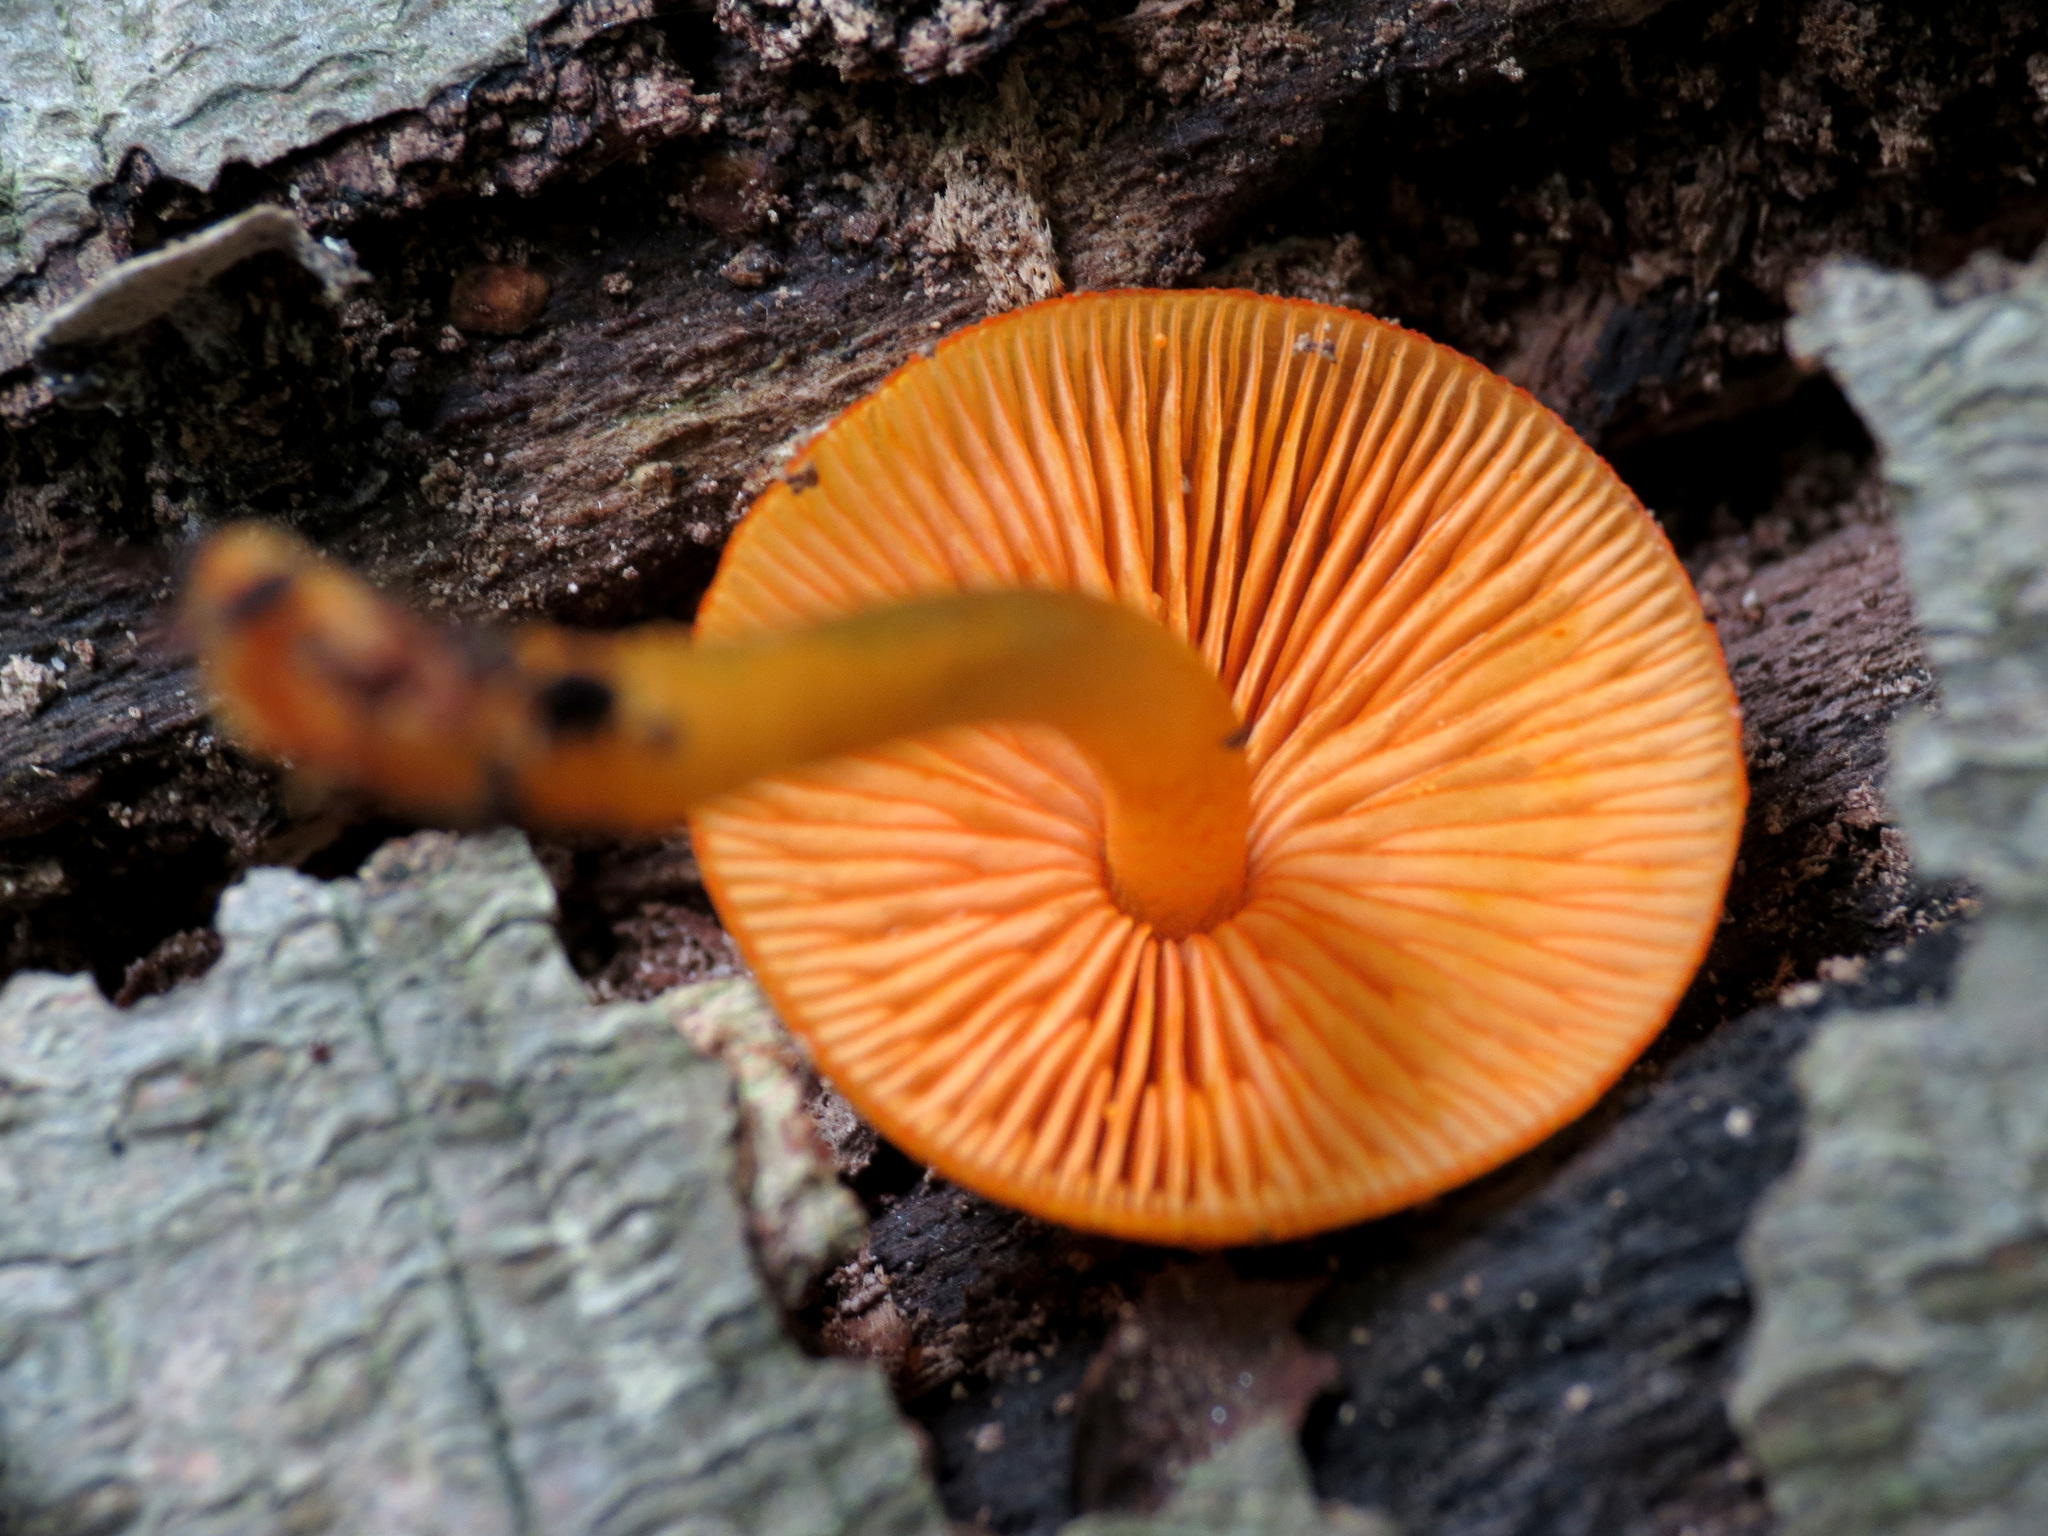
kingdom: Fungi
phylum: Basidiomycota
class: Agaricomycetes
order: Agaricales
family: Mycenaceae
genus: Mycena
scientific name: Mycena leaiana
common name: Orange mycena
